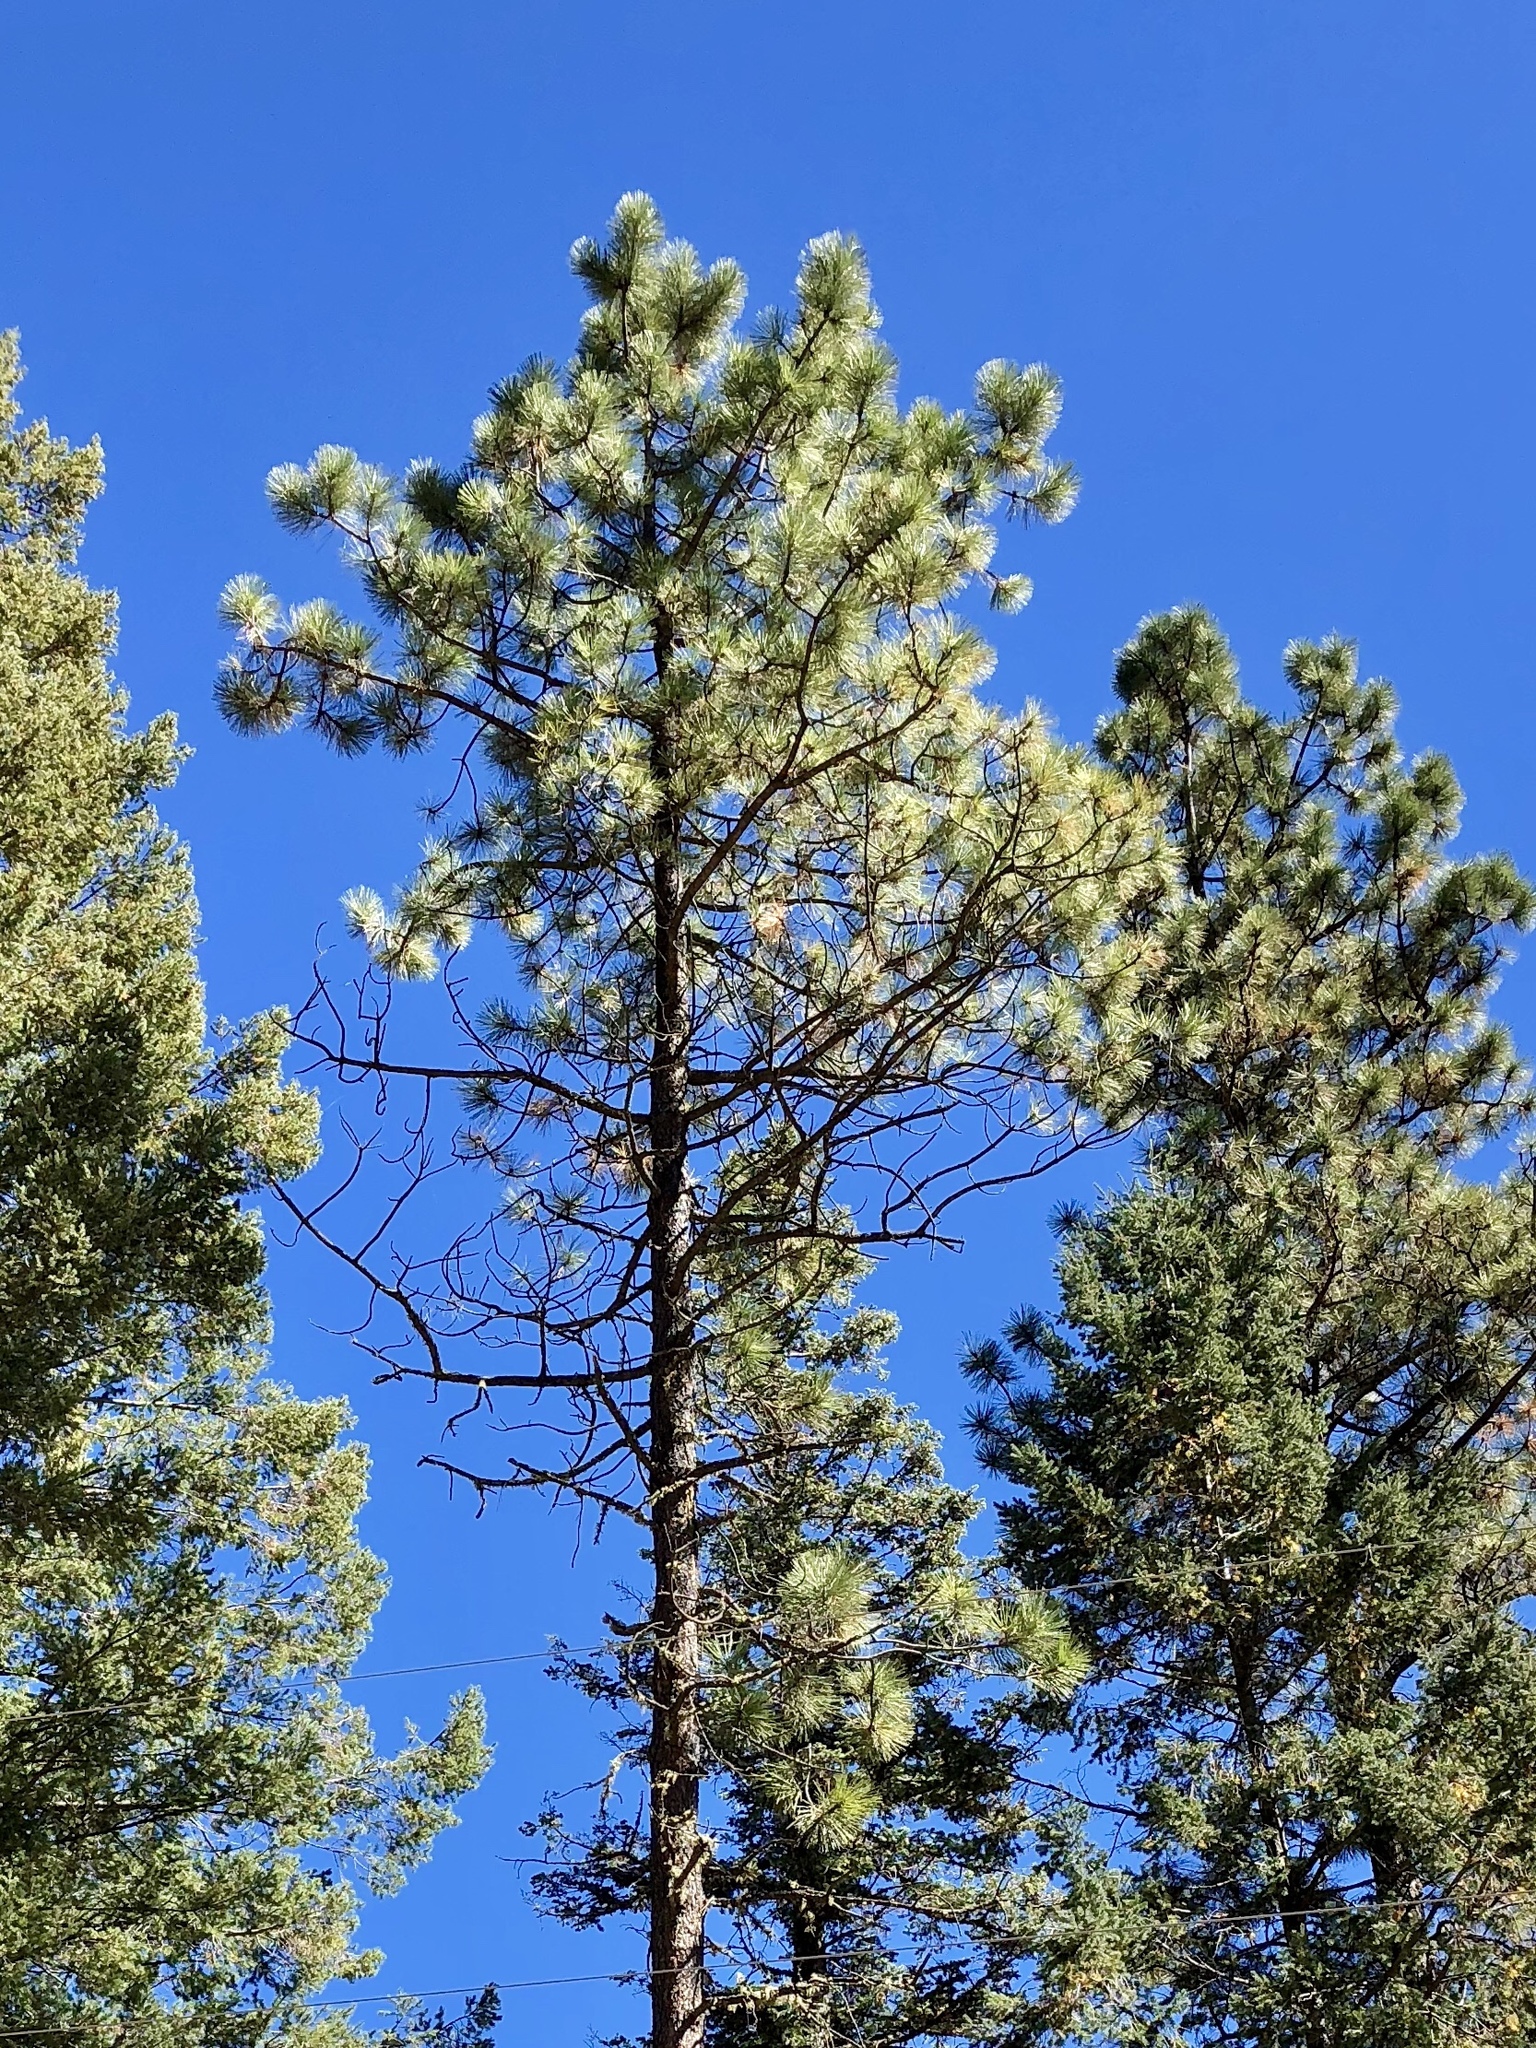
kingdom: Plantae
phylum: Tracheophyta
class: Pinopsida
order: Pinales
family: Pinaceae
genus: Pinus
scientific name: Pinus ponderosa
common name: Western yellow-pine
